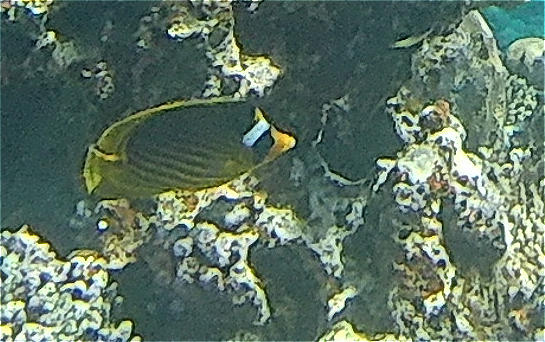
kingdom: Animalia
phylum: Chordata
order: Perciformes
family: Chaetodontidae
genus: Chaetodon
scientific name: Chaetodon fasciatus
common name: Diagonal butterflyfish
